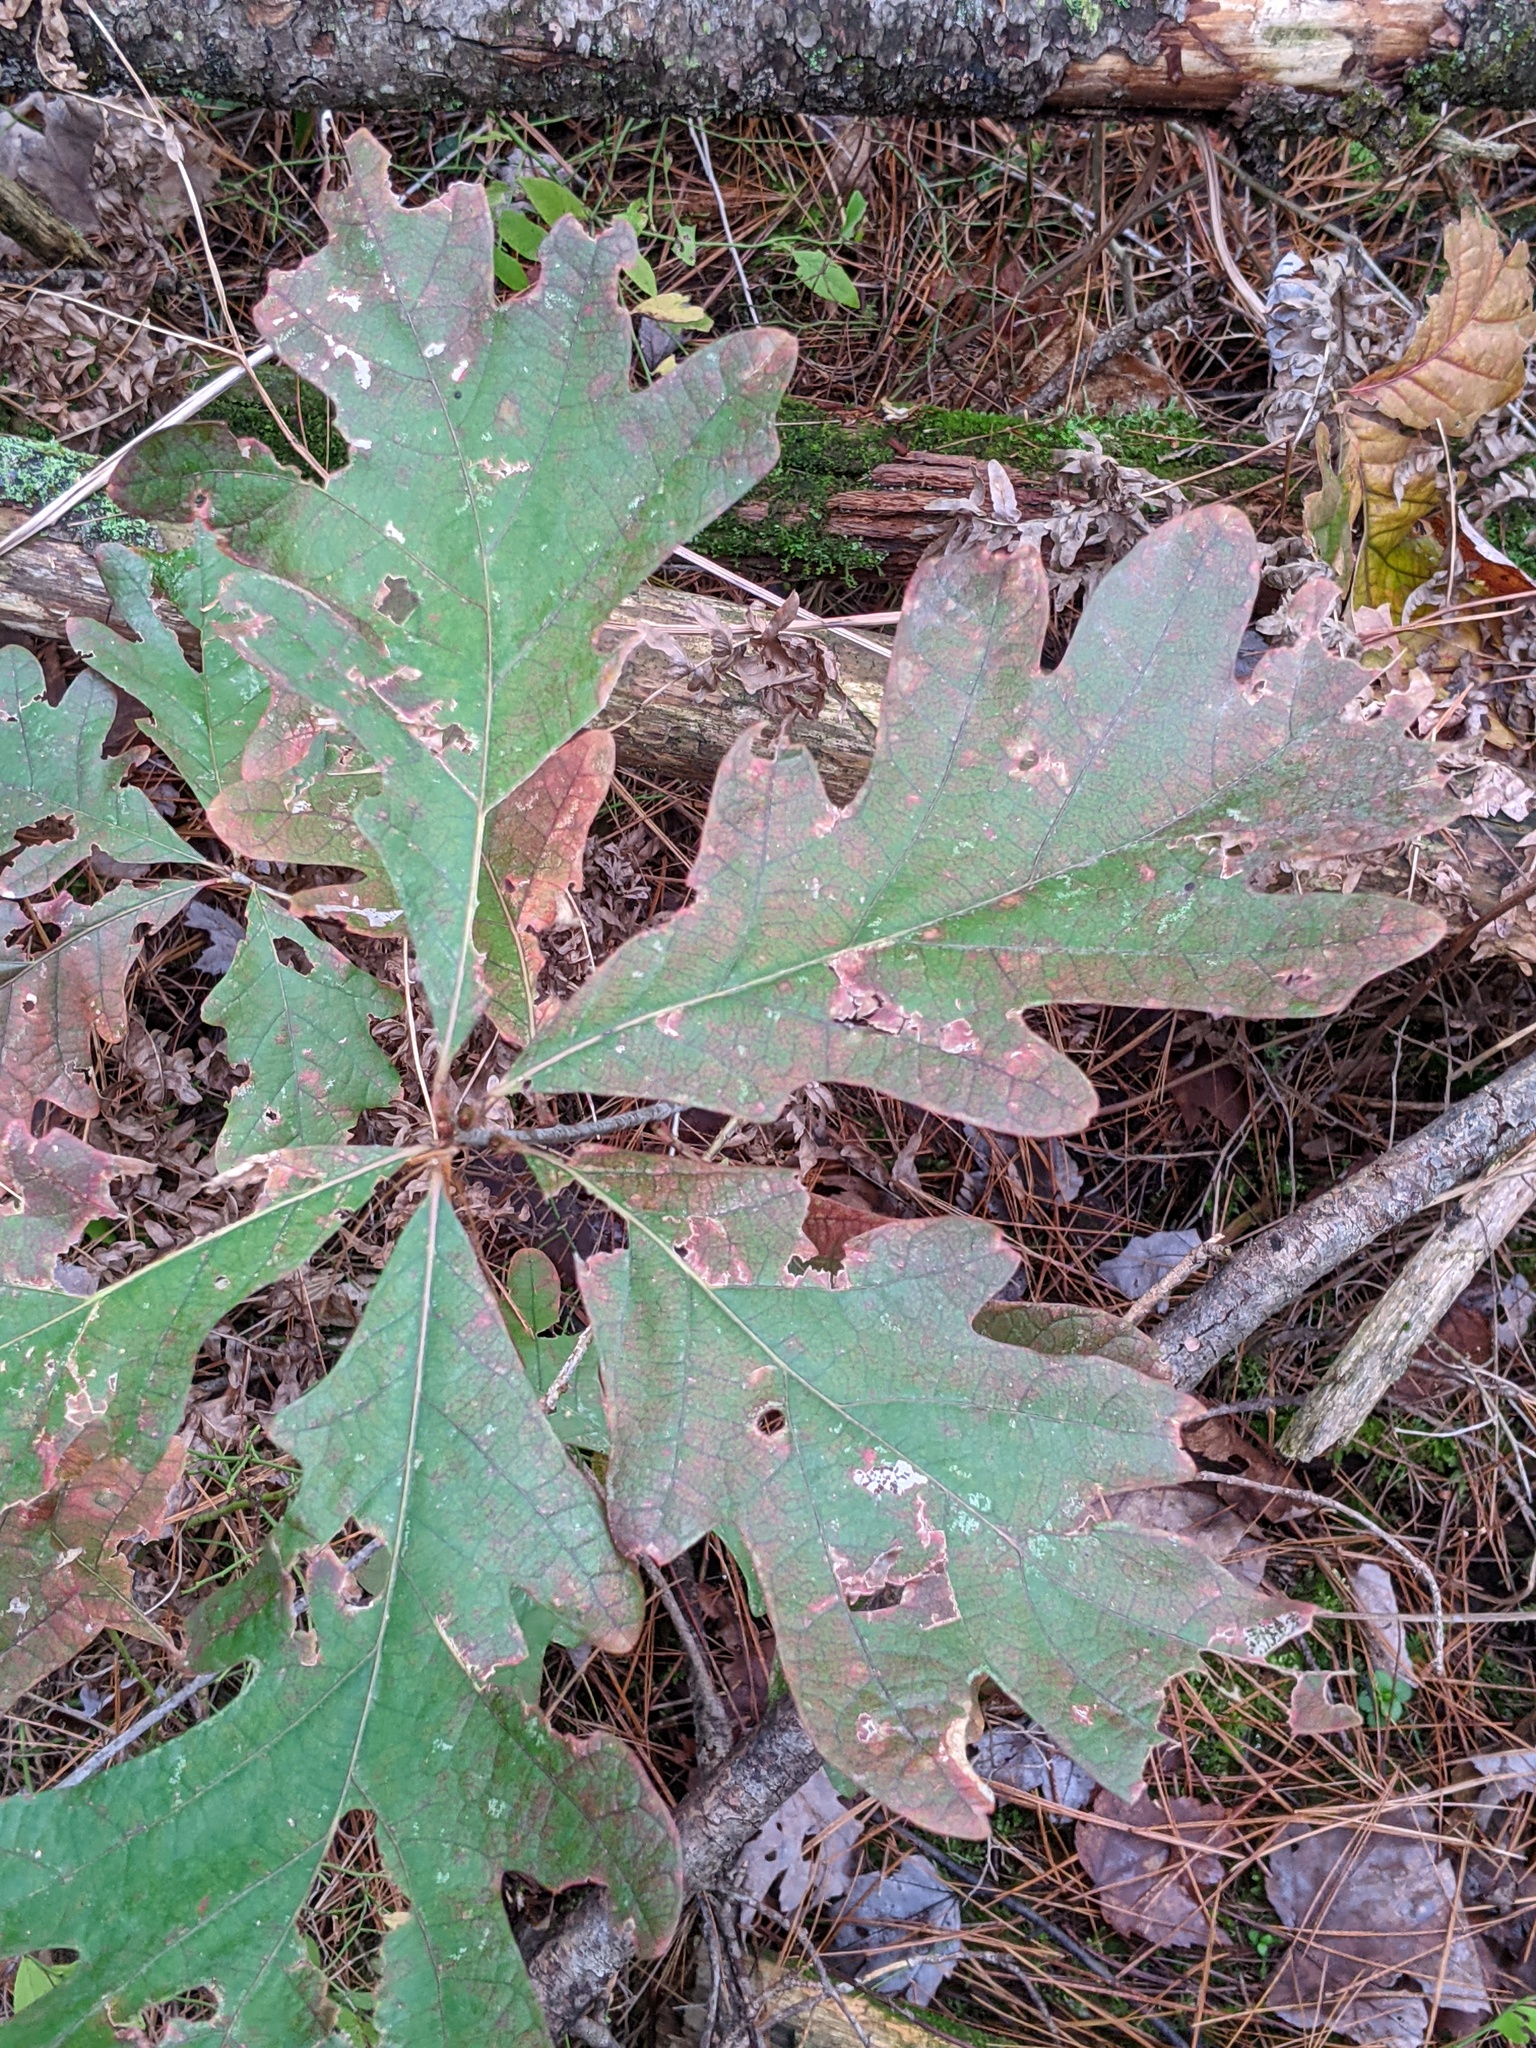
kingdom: Plantae
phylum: Tracheophyta
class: Magnoliopsida
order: Fagales
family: Fagaceae
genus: Quercus
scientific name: Quercus alba
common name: White oak
